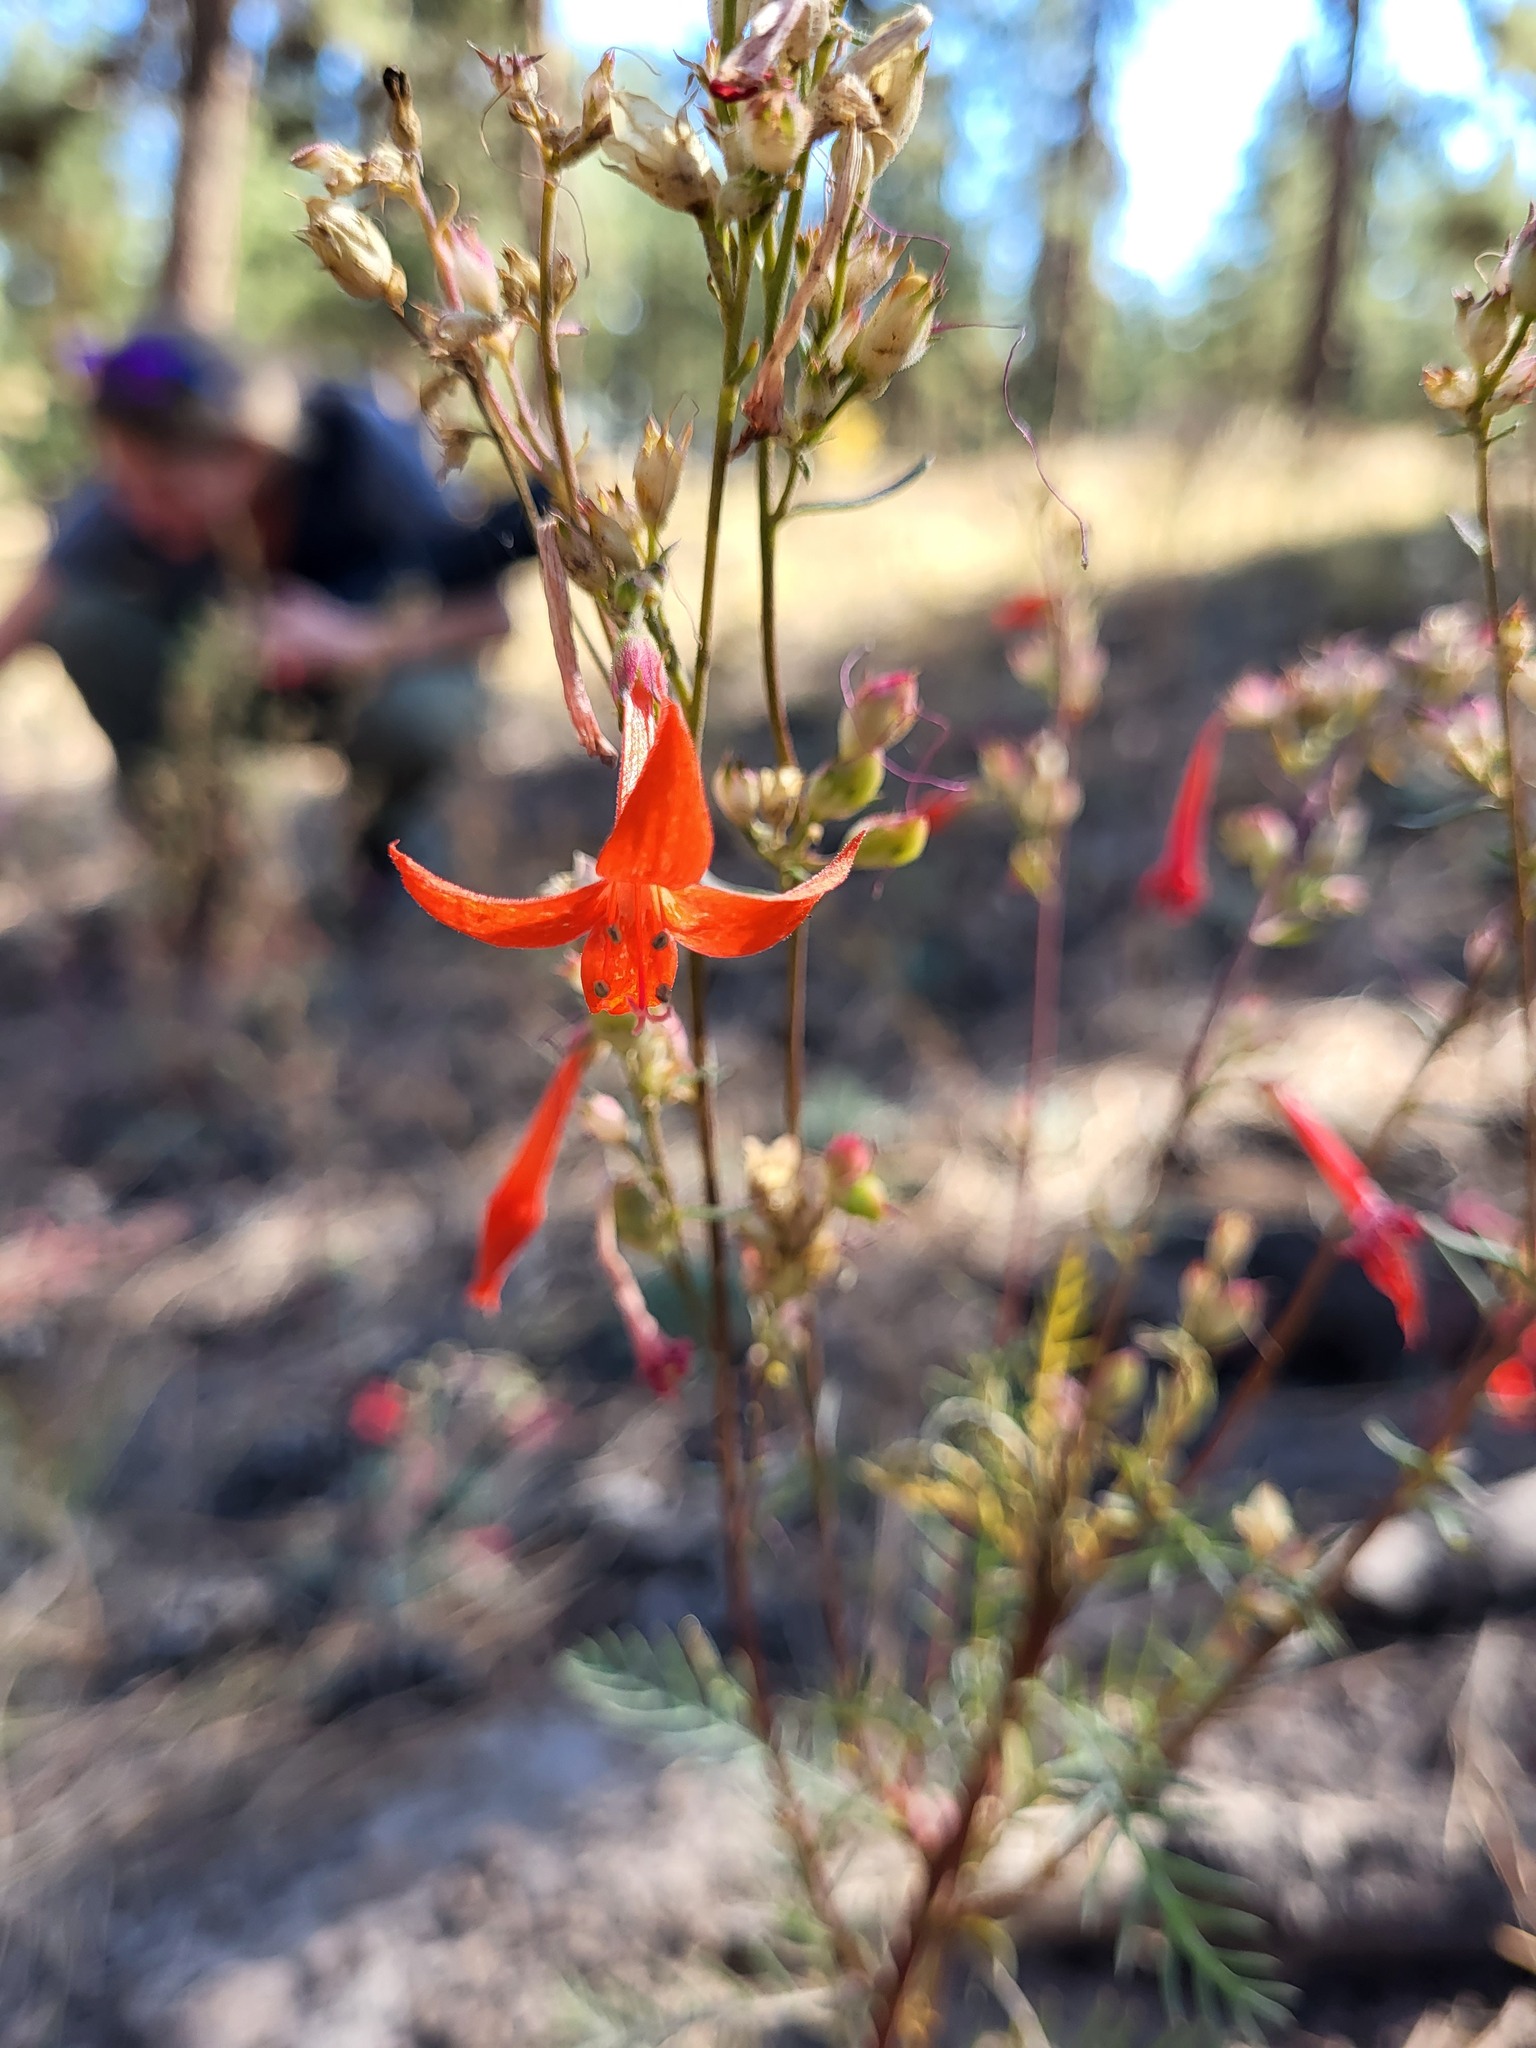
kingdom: Plantae
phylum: Tracheophyta
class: Magnoliopsida
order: Ericales
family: Polemoniaceae
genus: Ipomopsis
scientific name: Ipomopsis aggregata
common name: Scarlet gilia
